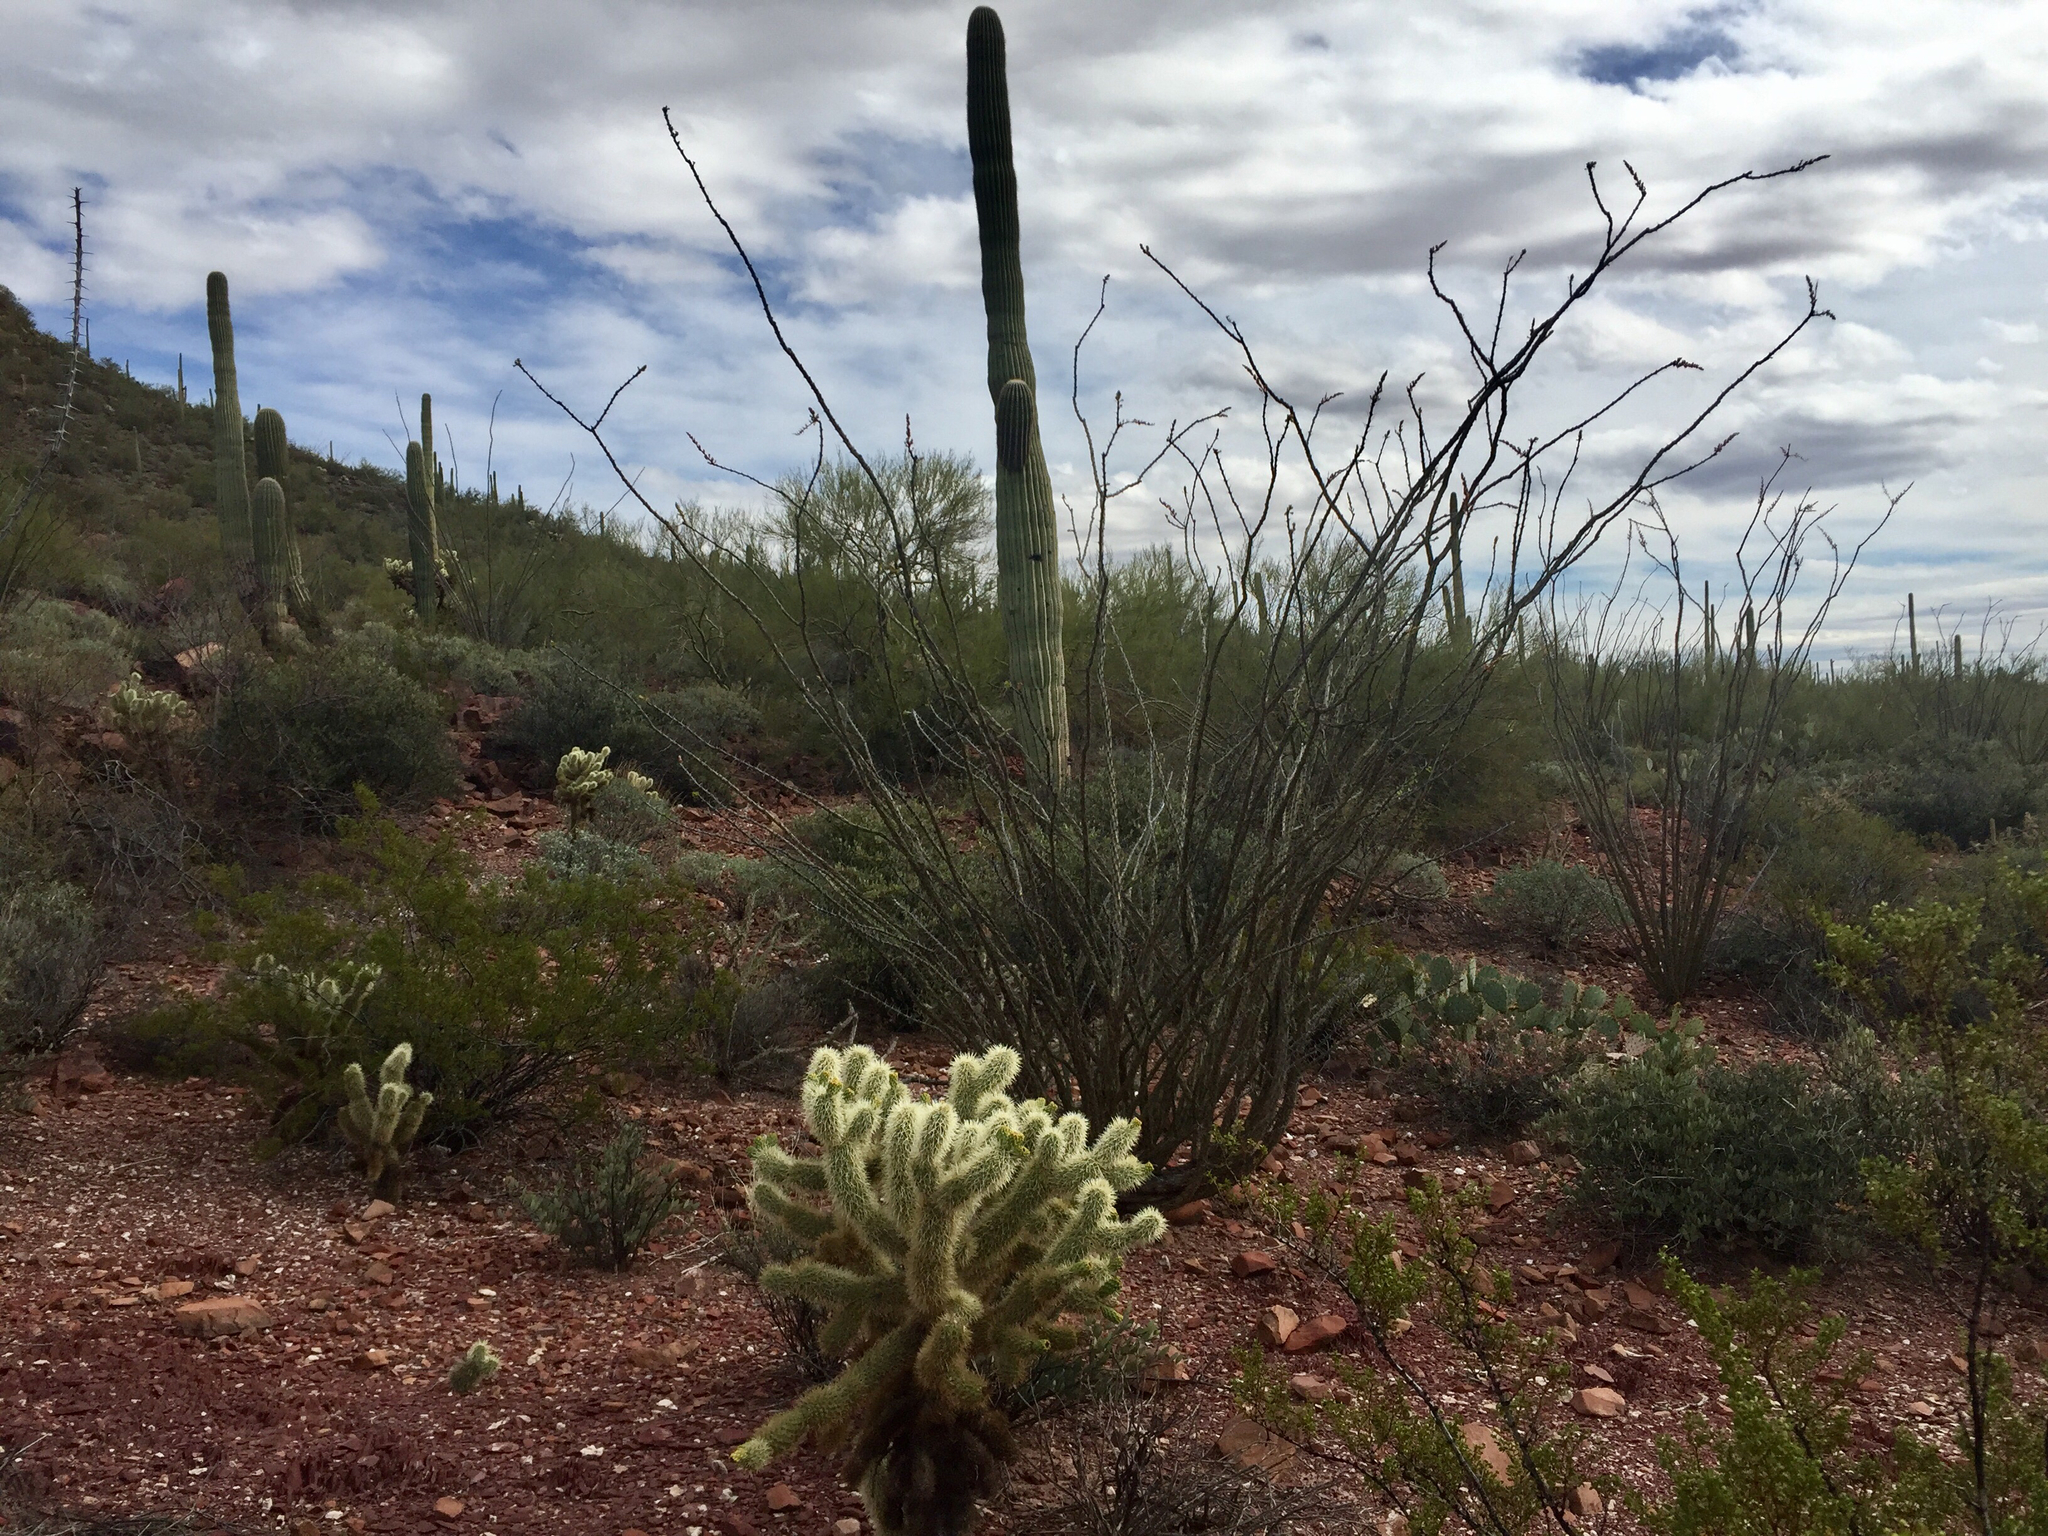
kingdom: Plantae
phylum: Tracheophyta
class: Magnoliopsida
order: Ericales
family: Fouquieriaceae
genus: Fouquieria
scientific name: Fouquieria splendens
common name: Vine-cactus
